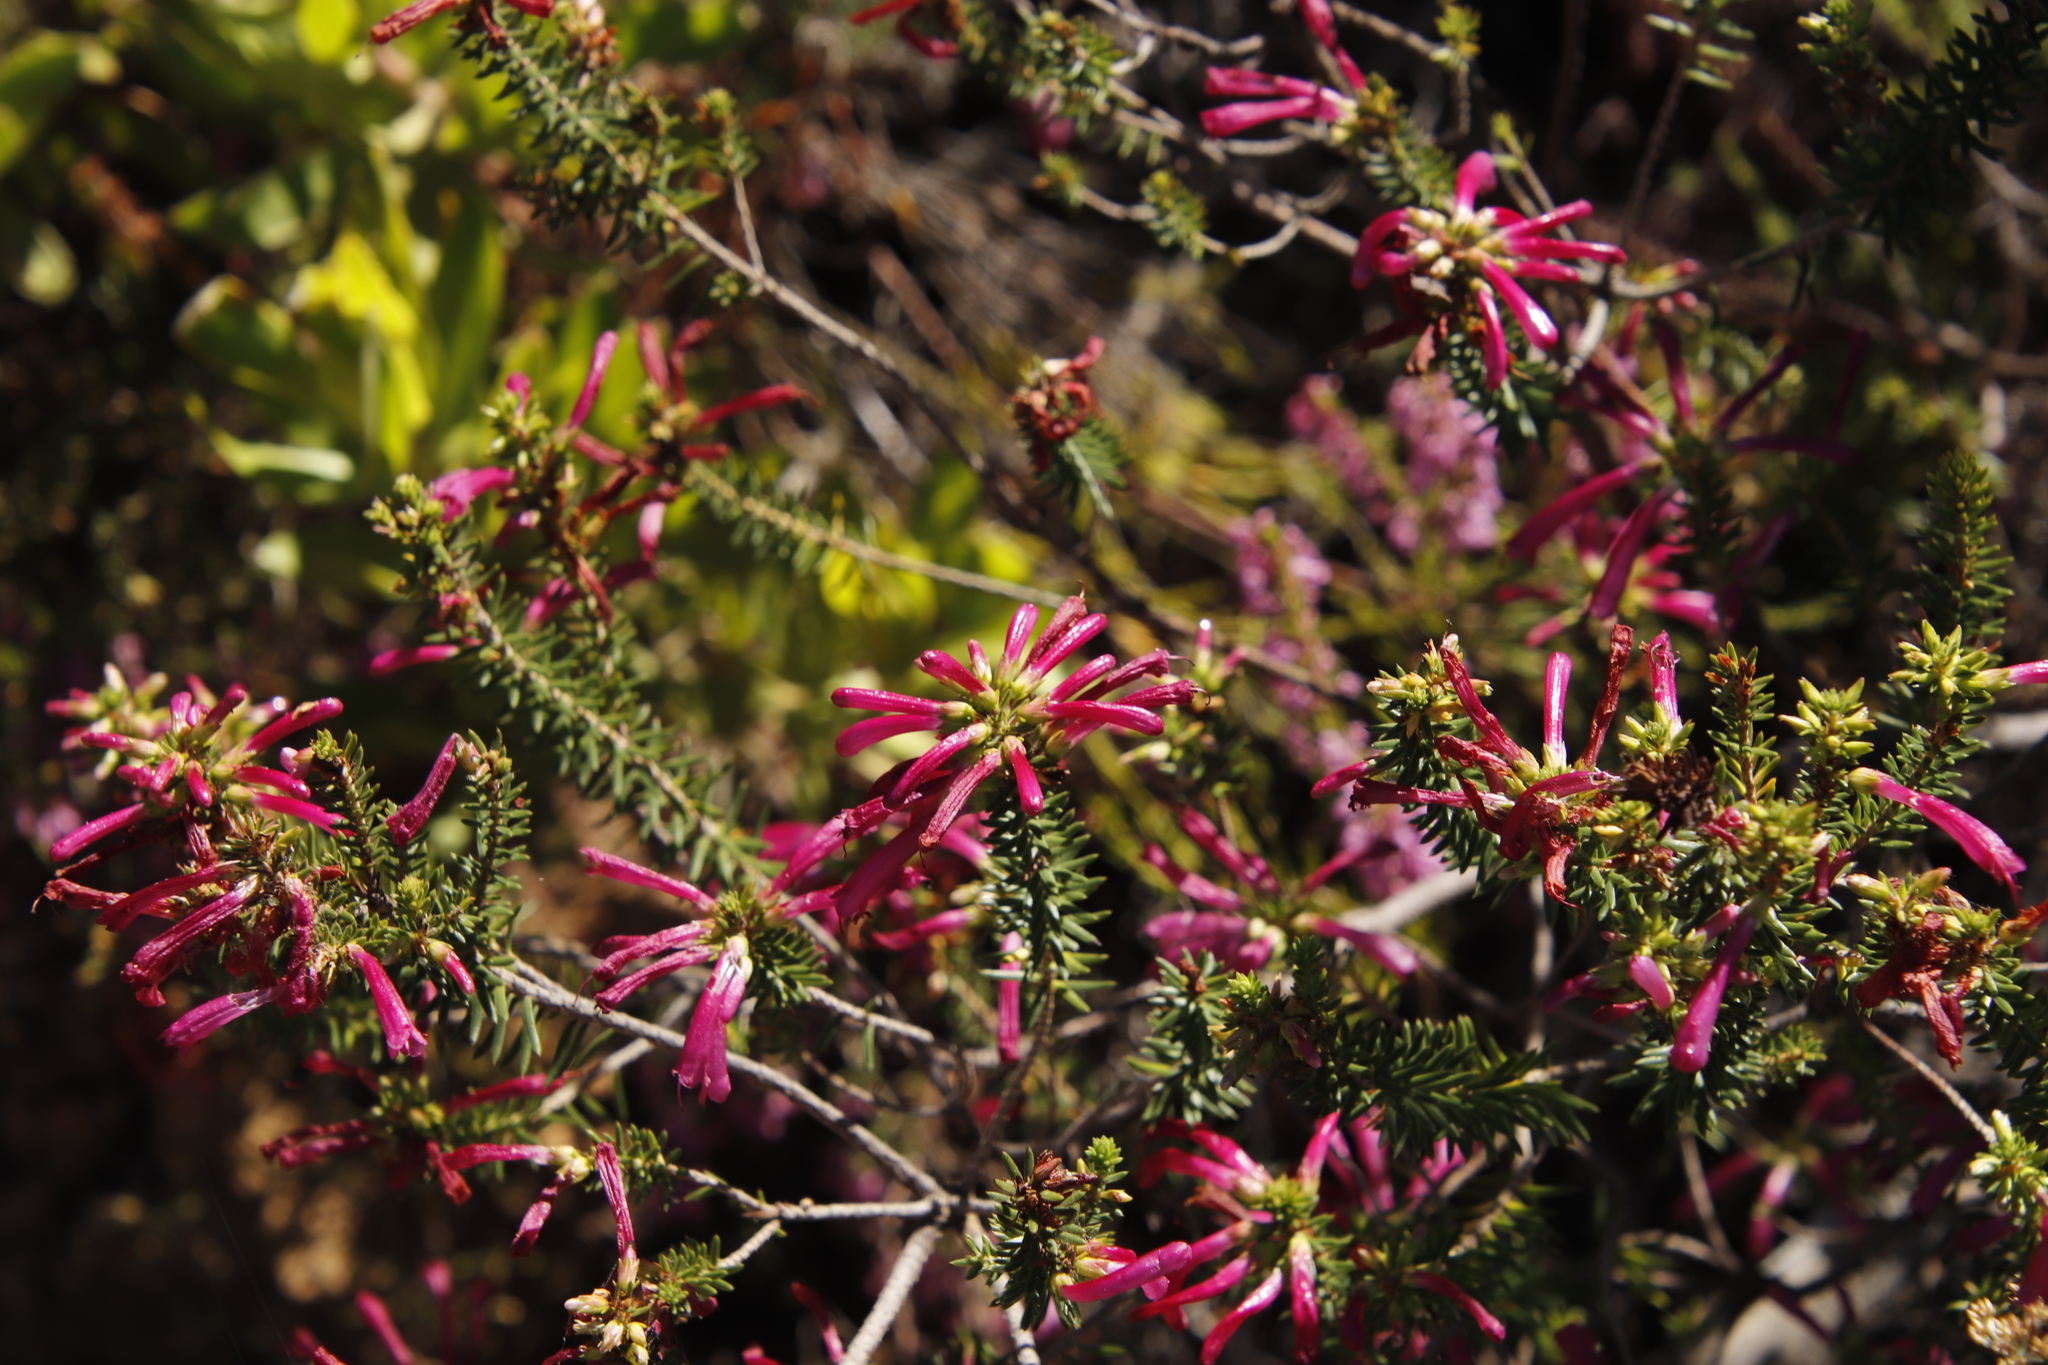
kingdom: Plantae
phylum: Tracheophyta
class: Magnoliopsida
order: Ericales
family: Ericaceae
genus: Erica
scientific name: Erica abietina
